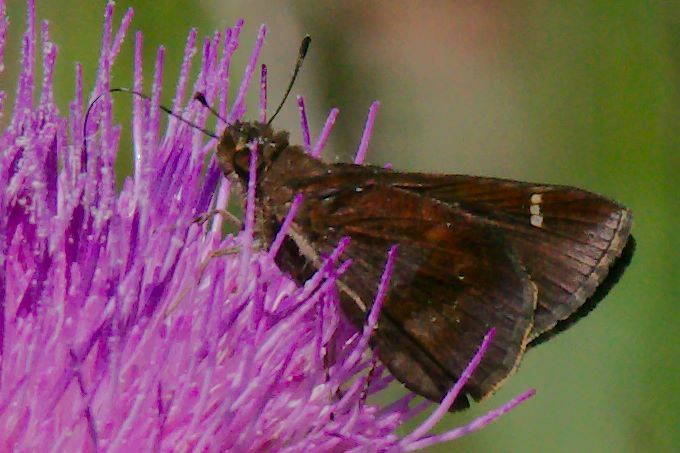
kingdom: Animalia
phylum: Arthropoda
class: Insecta
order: Lepidoptera
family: Hesperiidae
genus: Lerema
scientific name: Lerema accius
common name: Clouded skipper
